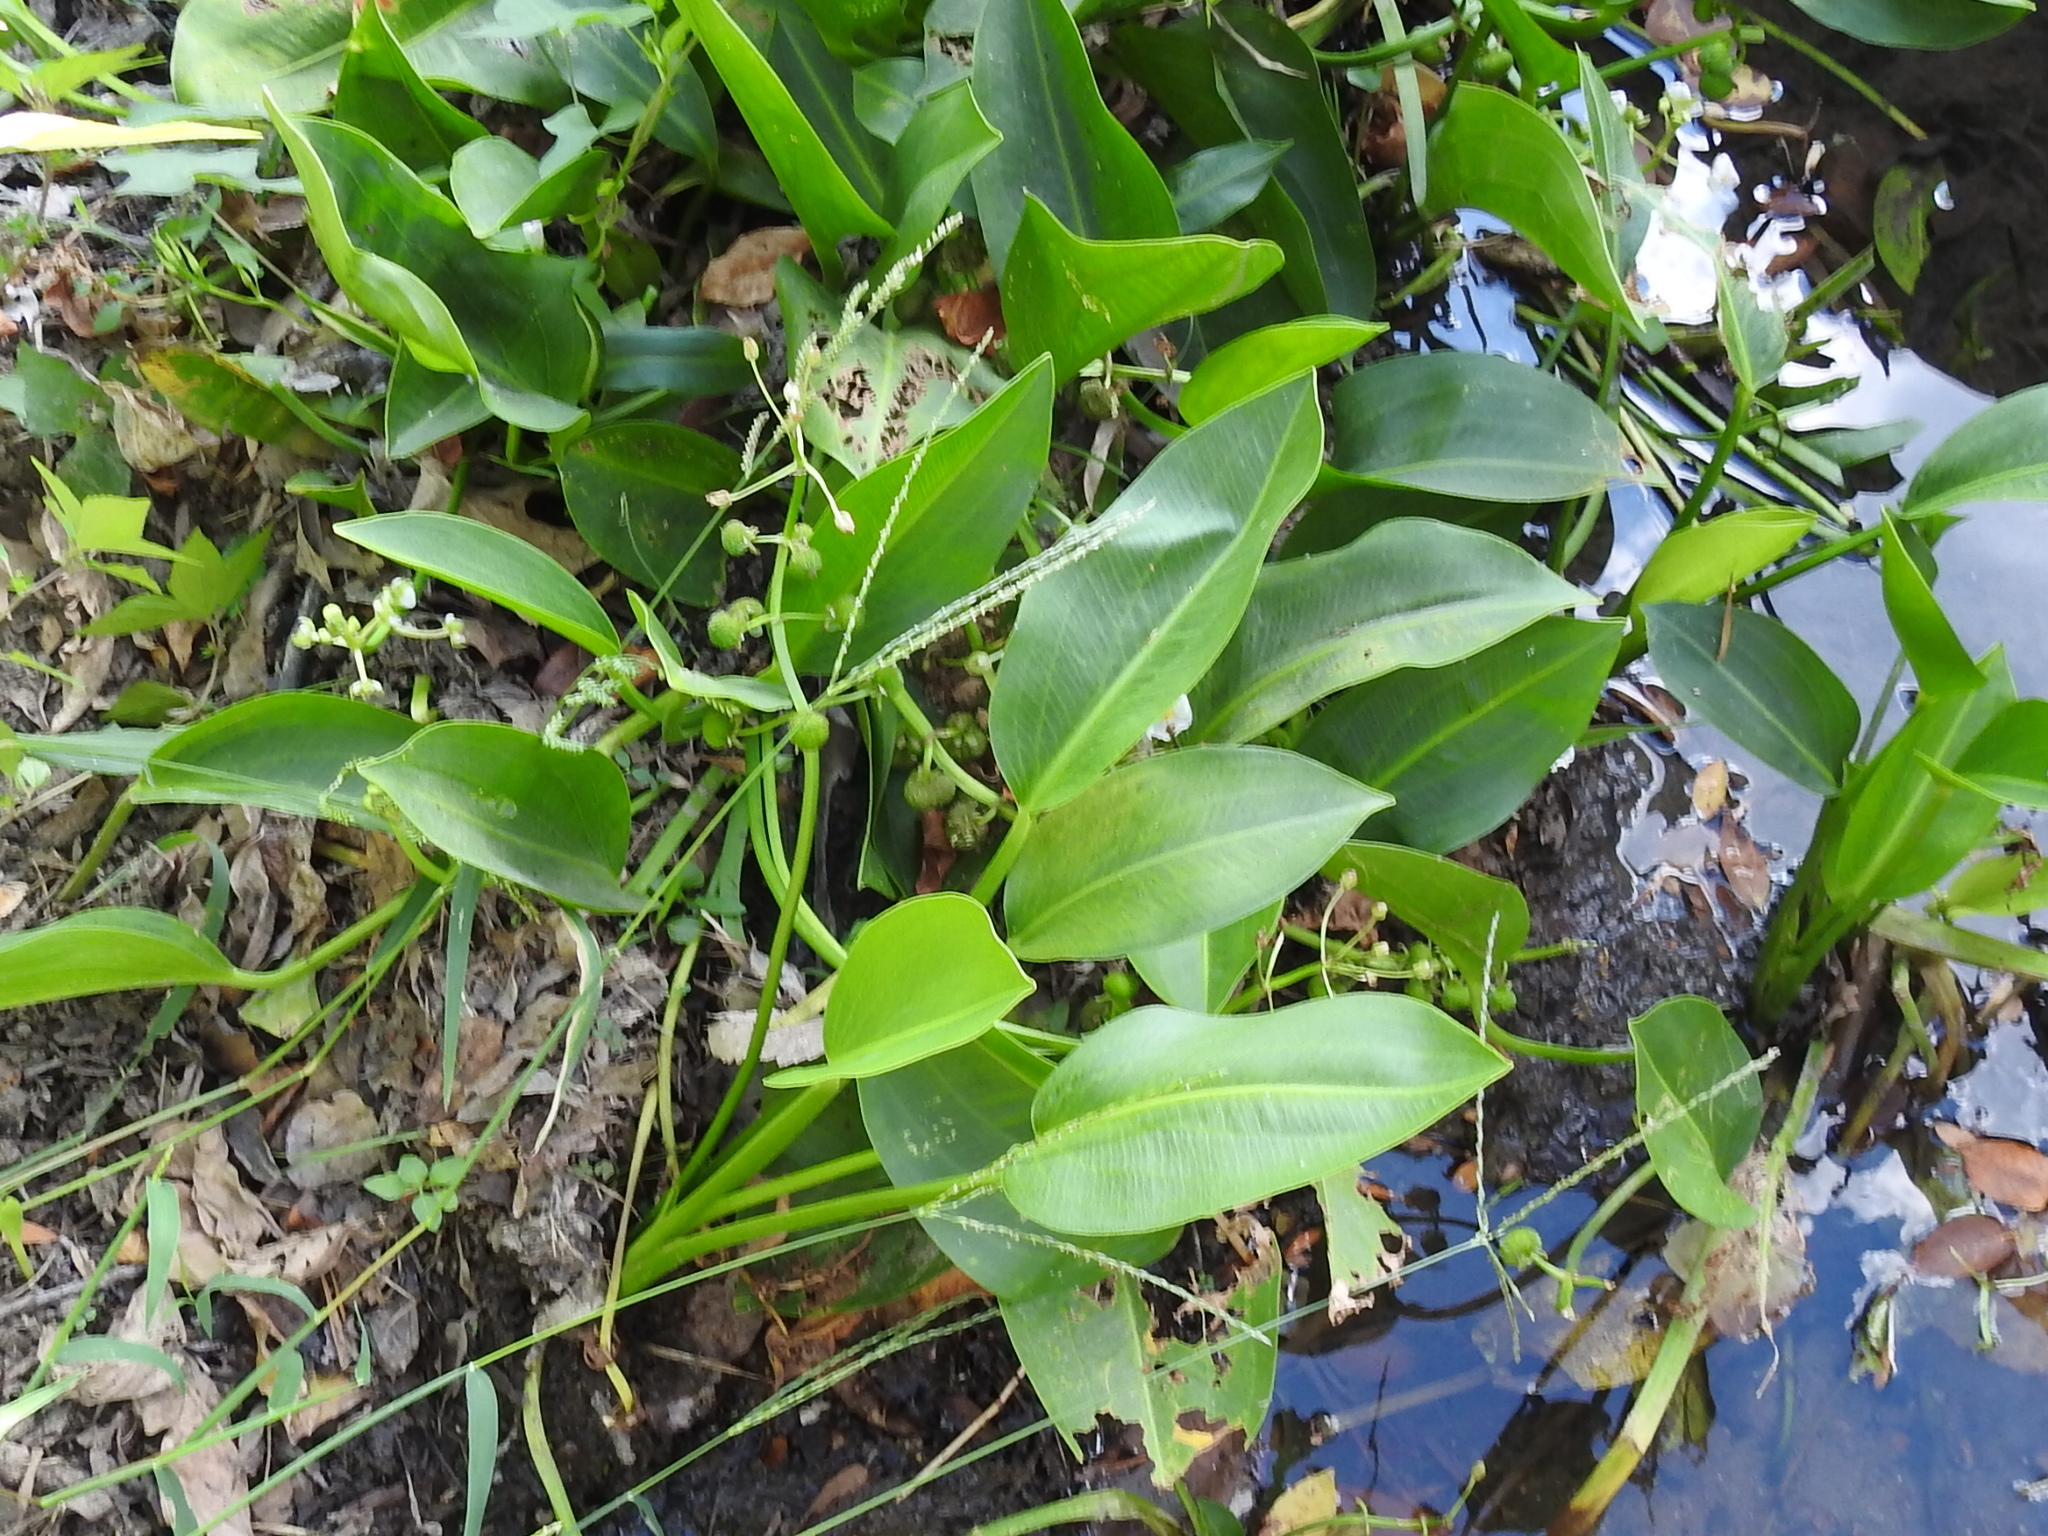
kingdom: Plantae
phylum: Tracheophyta
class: Liliopsida
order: Alismatales
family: Alismataceae
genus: Sagittaria
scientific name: Sagittaria platyphylla
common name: Broad-leaf arrowhead
